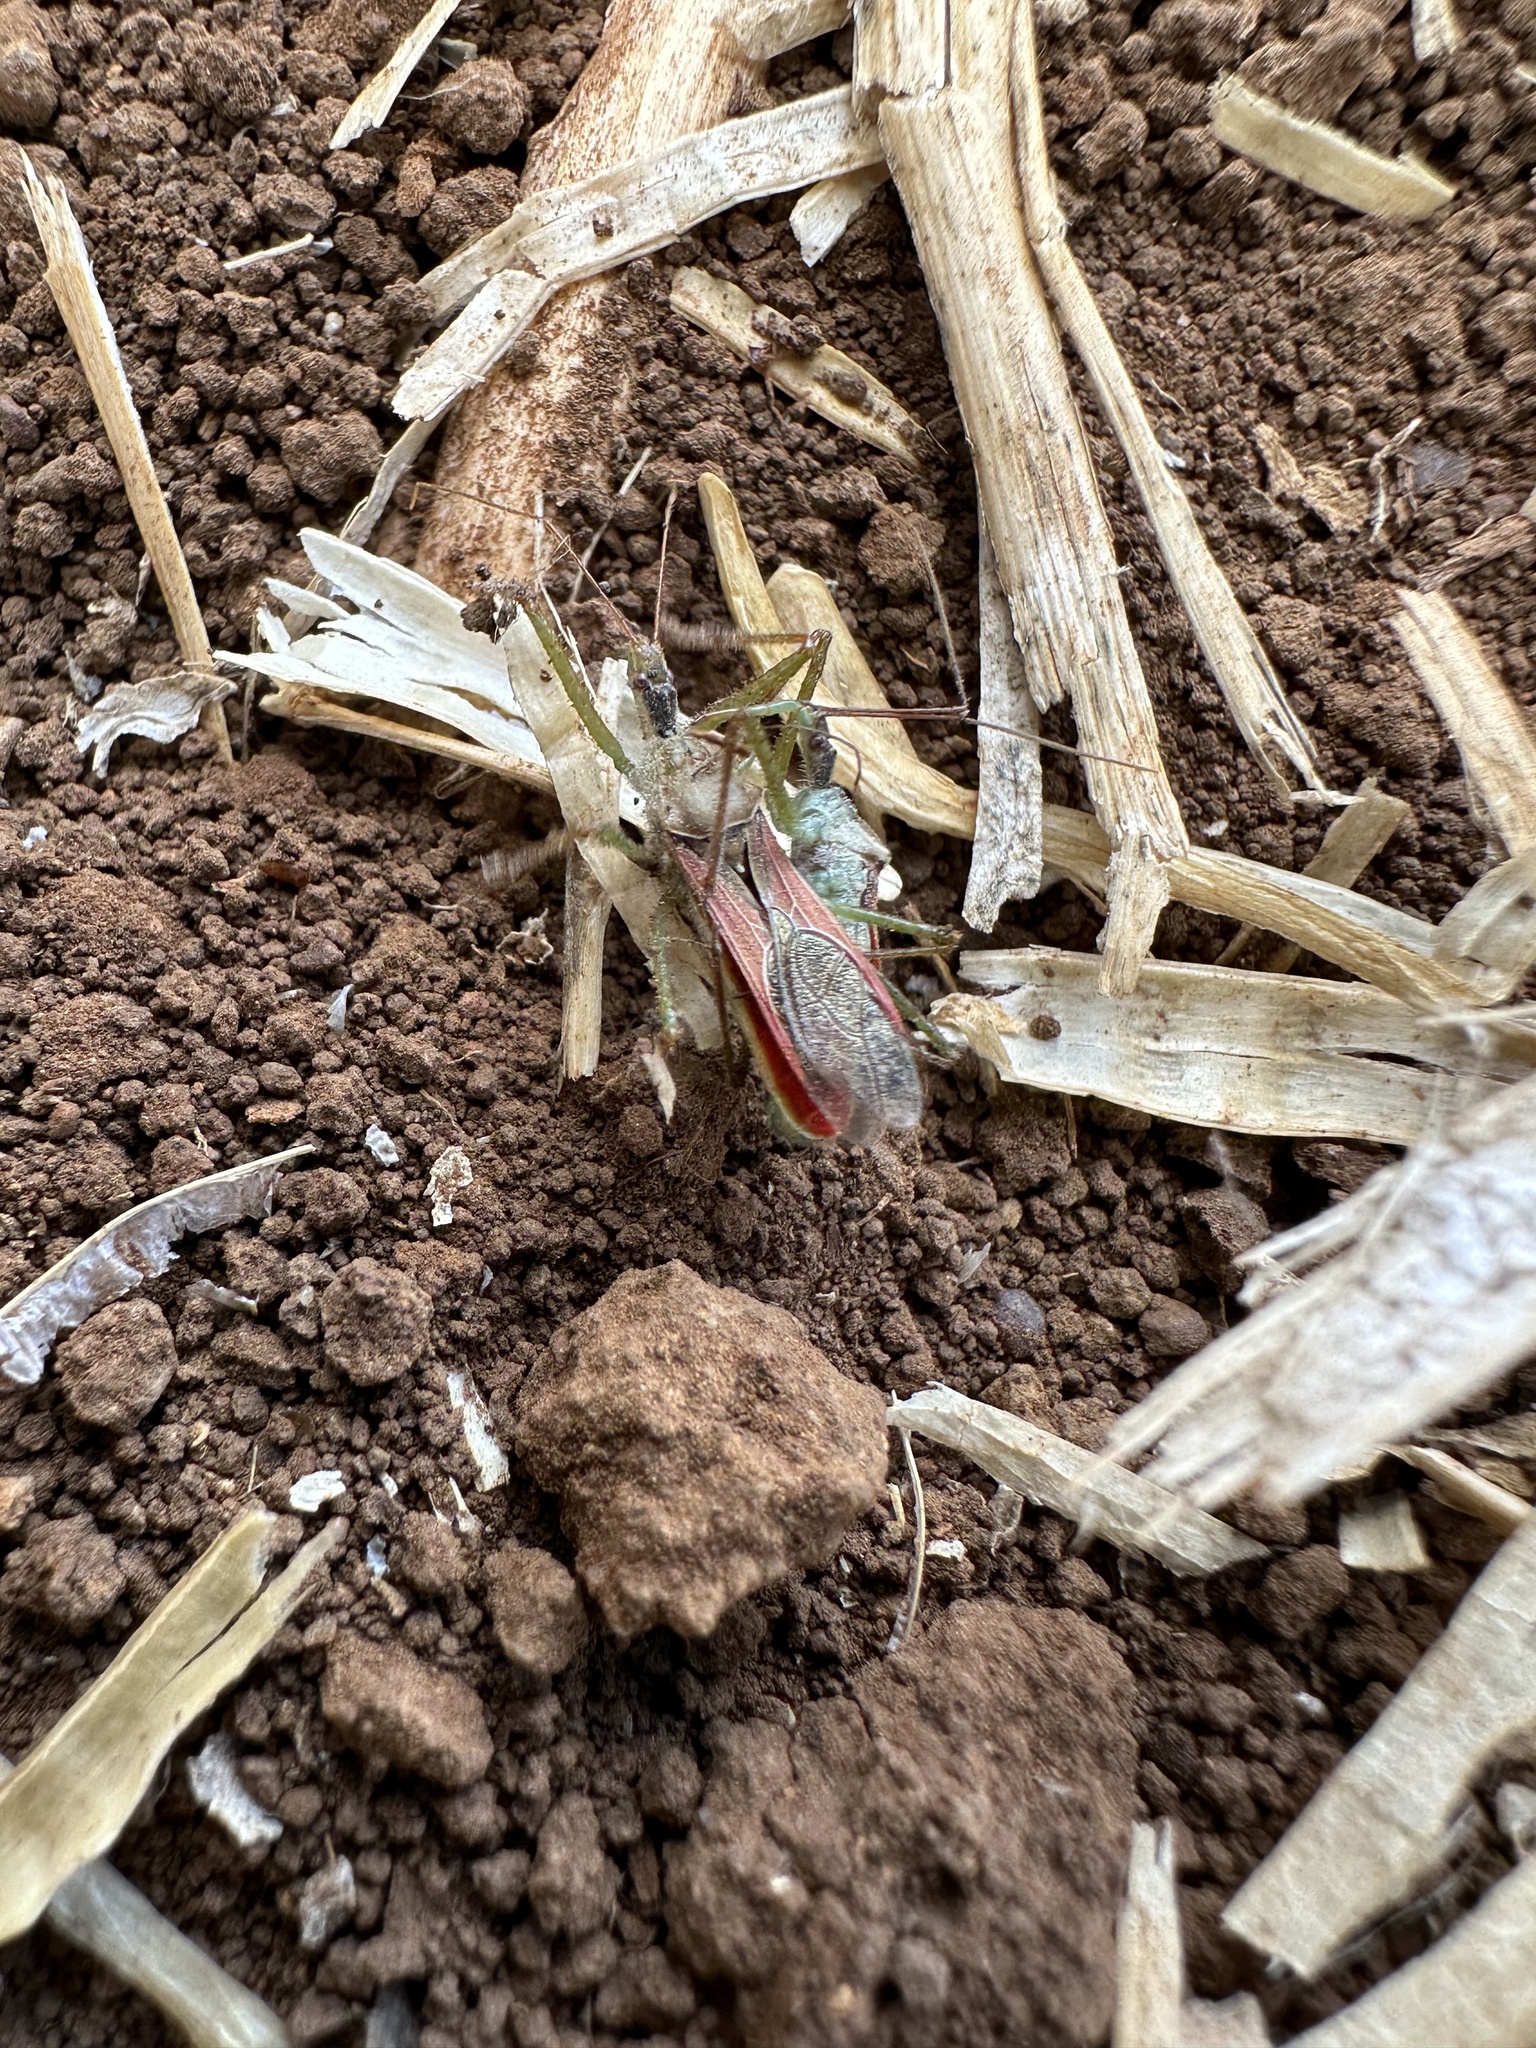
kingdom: Animalia
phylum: Arthropoda
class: Insecta
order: Hemiptera
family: Reduviidae
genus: Zelus
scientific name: Zelus renardii
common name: Assassin bug
